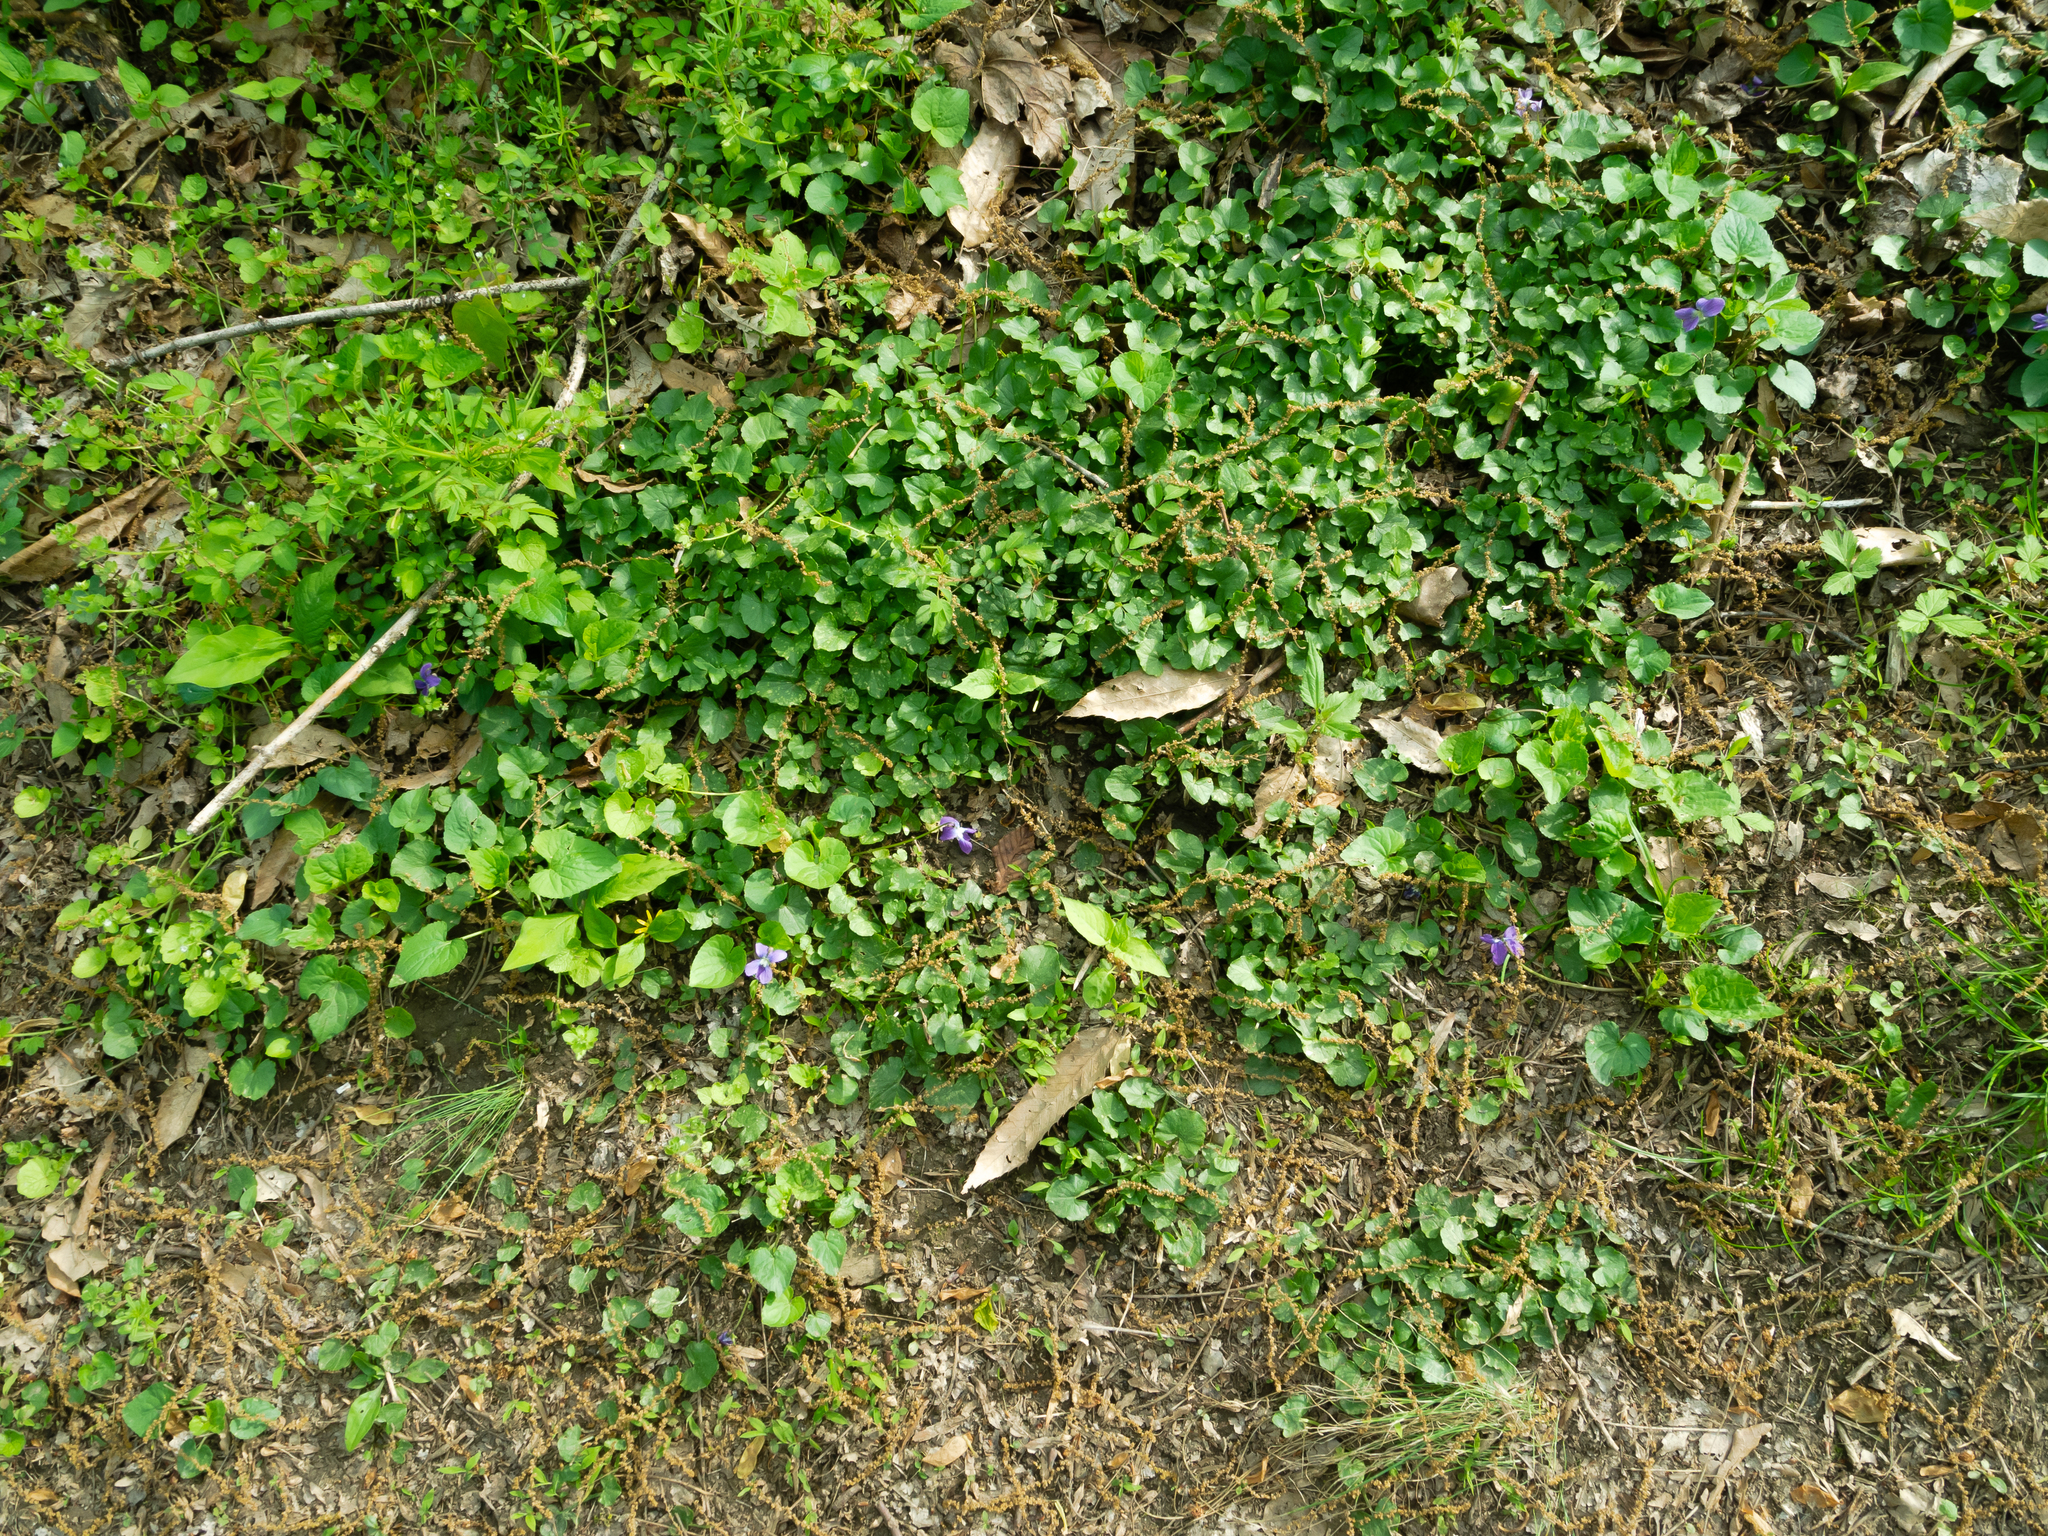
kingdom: Plantae
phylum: Tracheophyta
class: Magnoliopsida
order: Ranunculales
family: Ranunculaceae
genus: Ficaria
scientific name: Ficaria verna
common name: Lesser celandine
